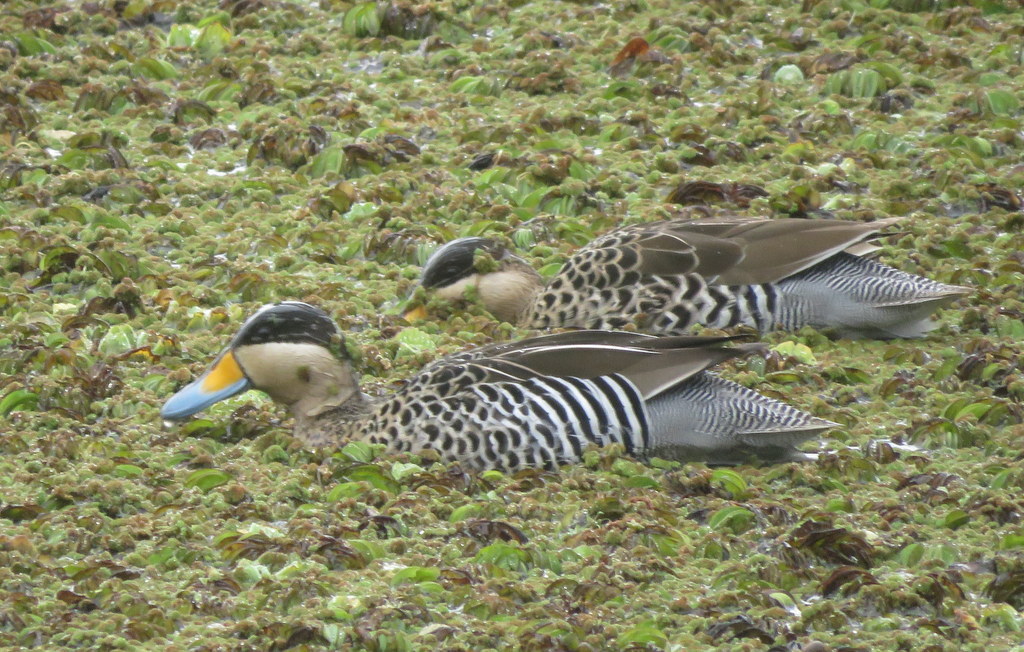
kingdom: Animalia
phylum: Chordata
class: Aves
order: Anseriformes
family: Anatidae
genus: Spatula
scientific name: Spatula versicolor
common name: Silver teal
